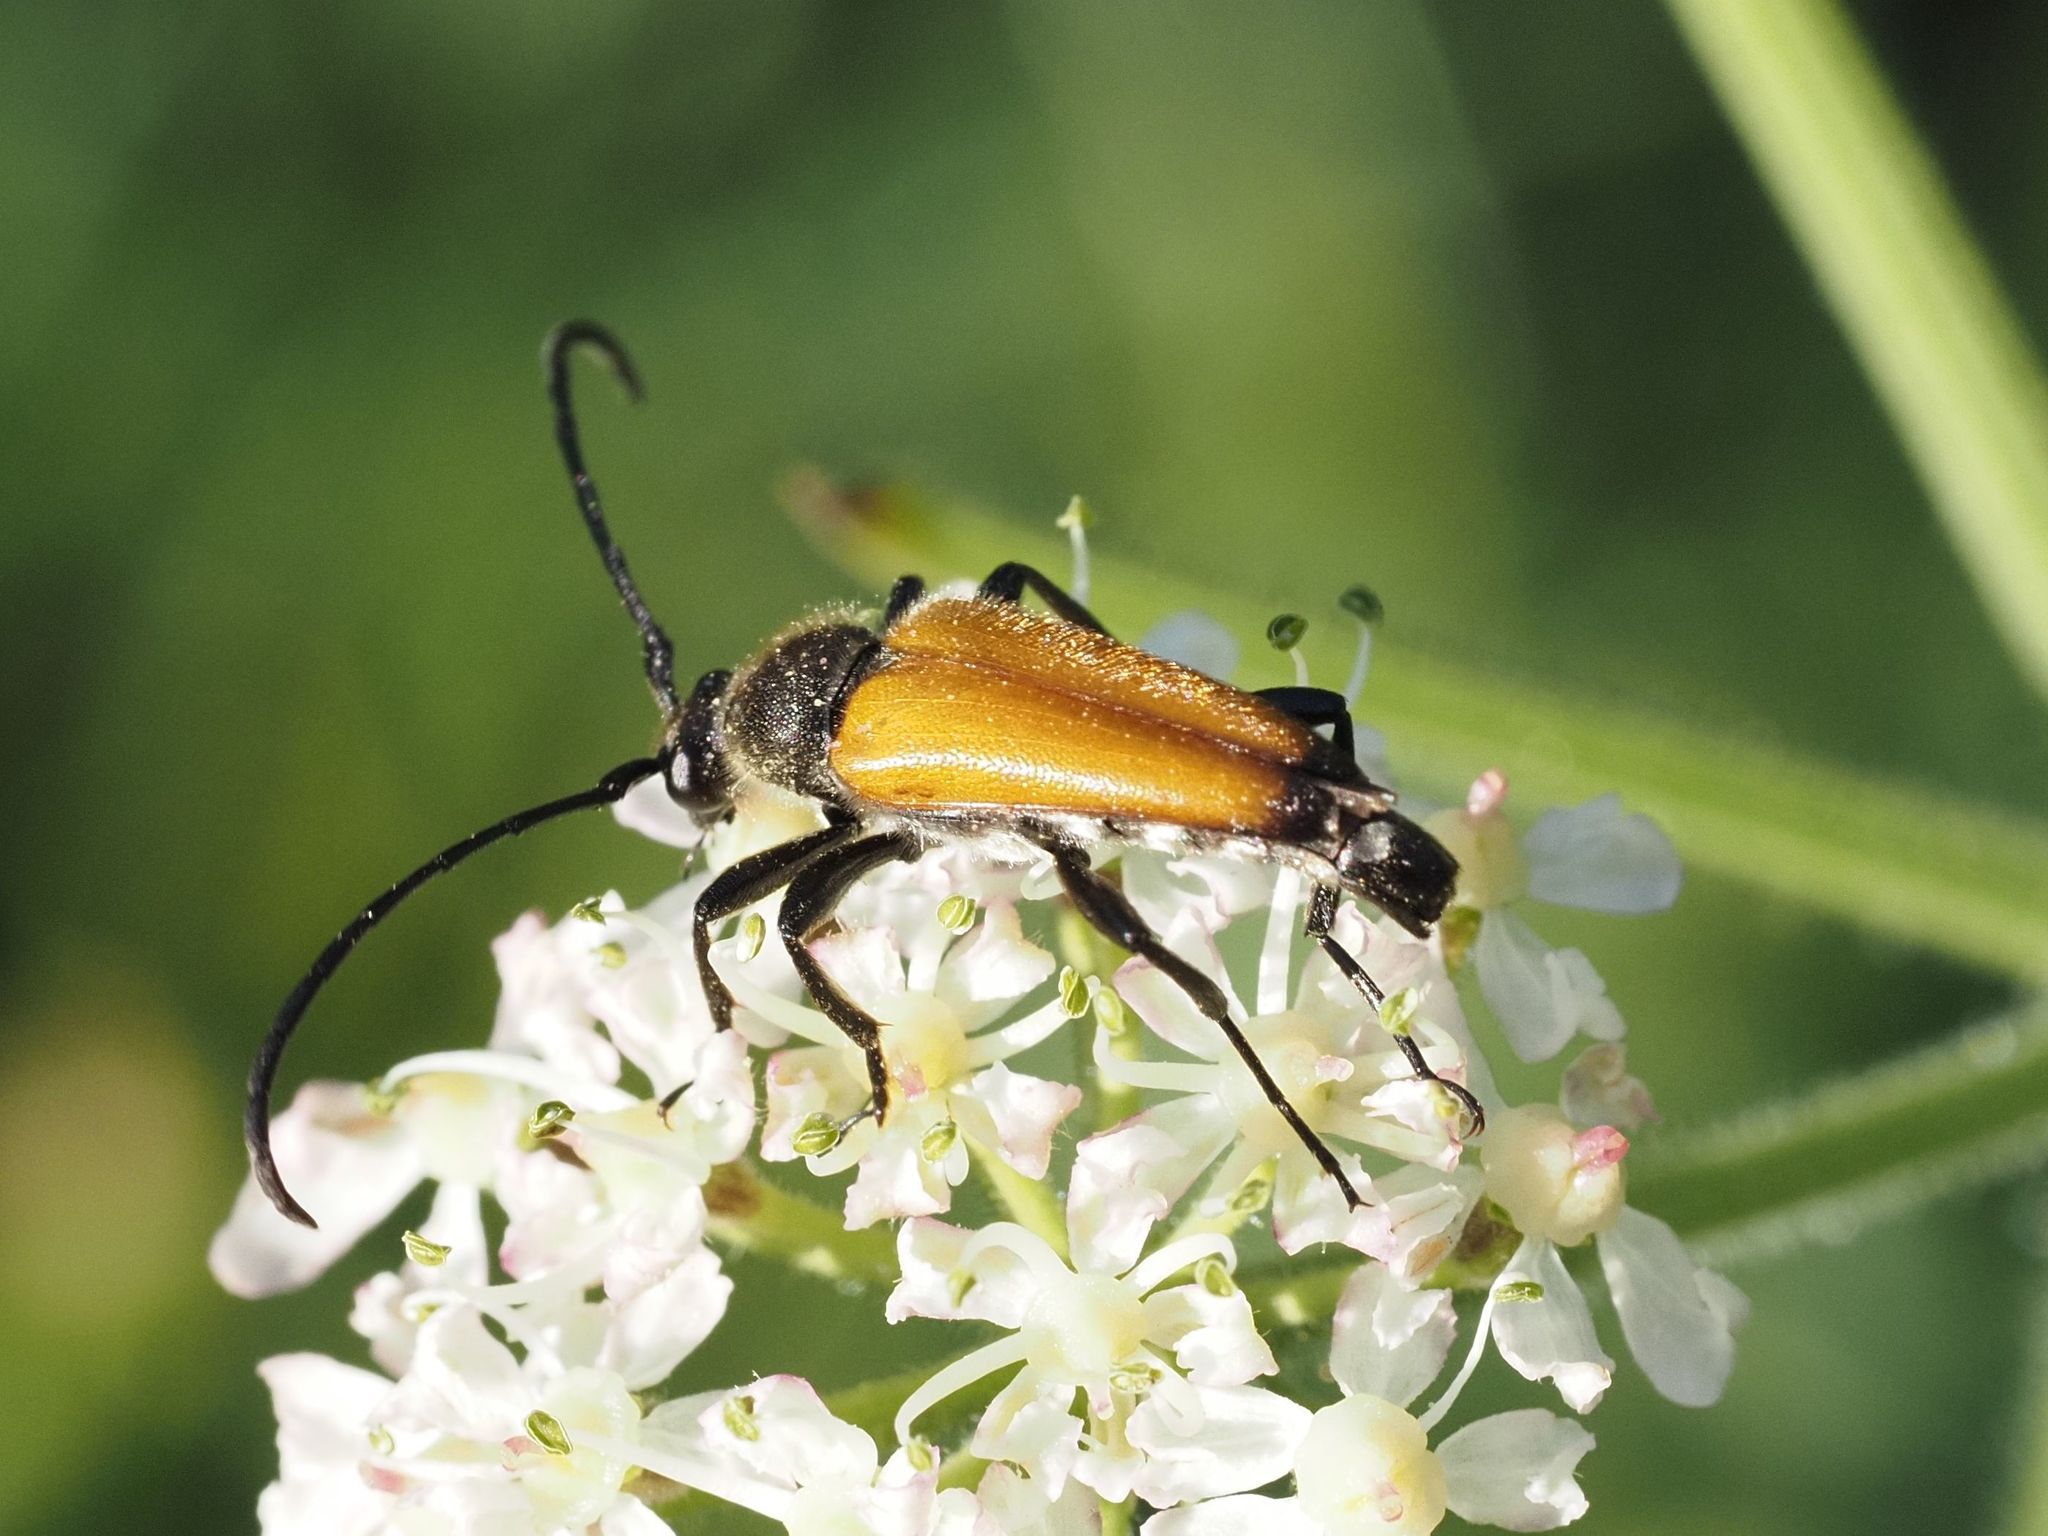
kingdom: Animalia
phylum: Arthropoda
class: Insecta
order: Coleoptera
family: Cerambycidae
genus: Paracorymbia
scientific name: Paracorymbia fulva
